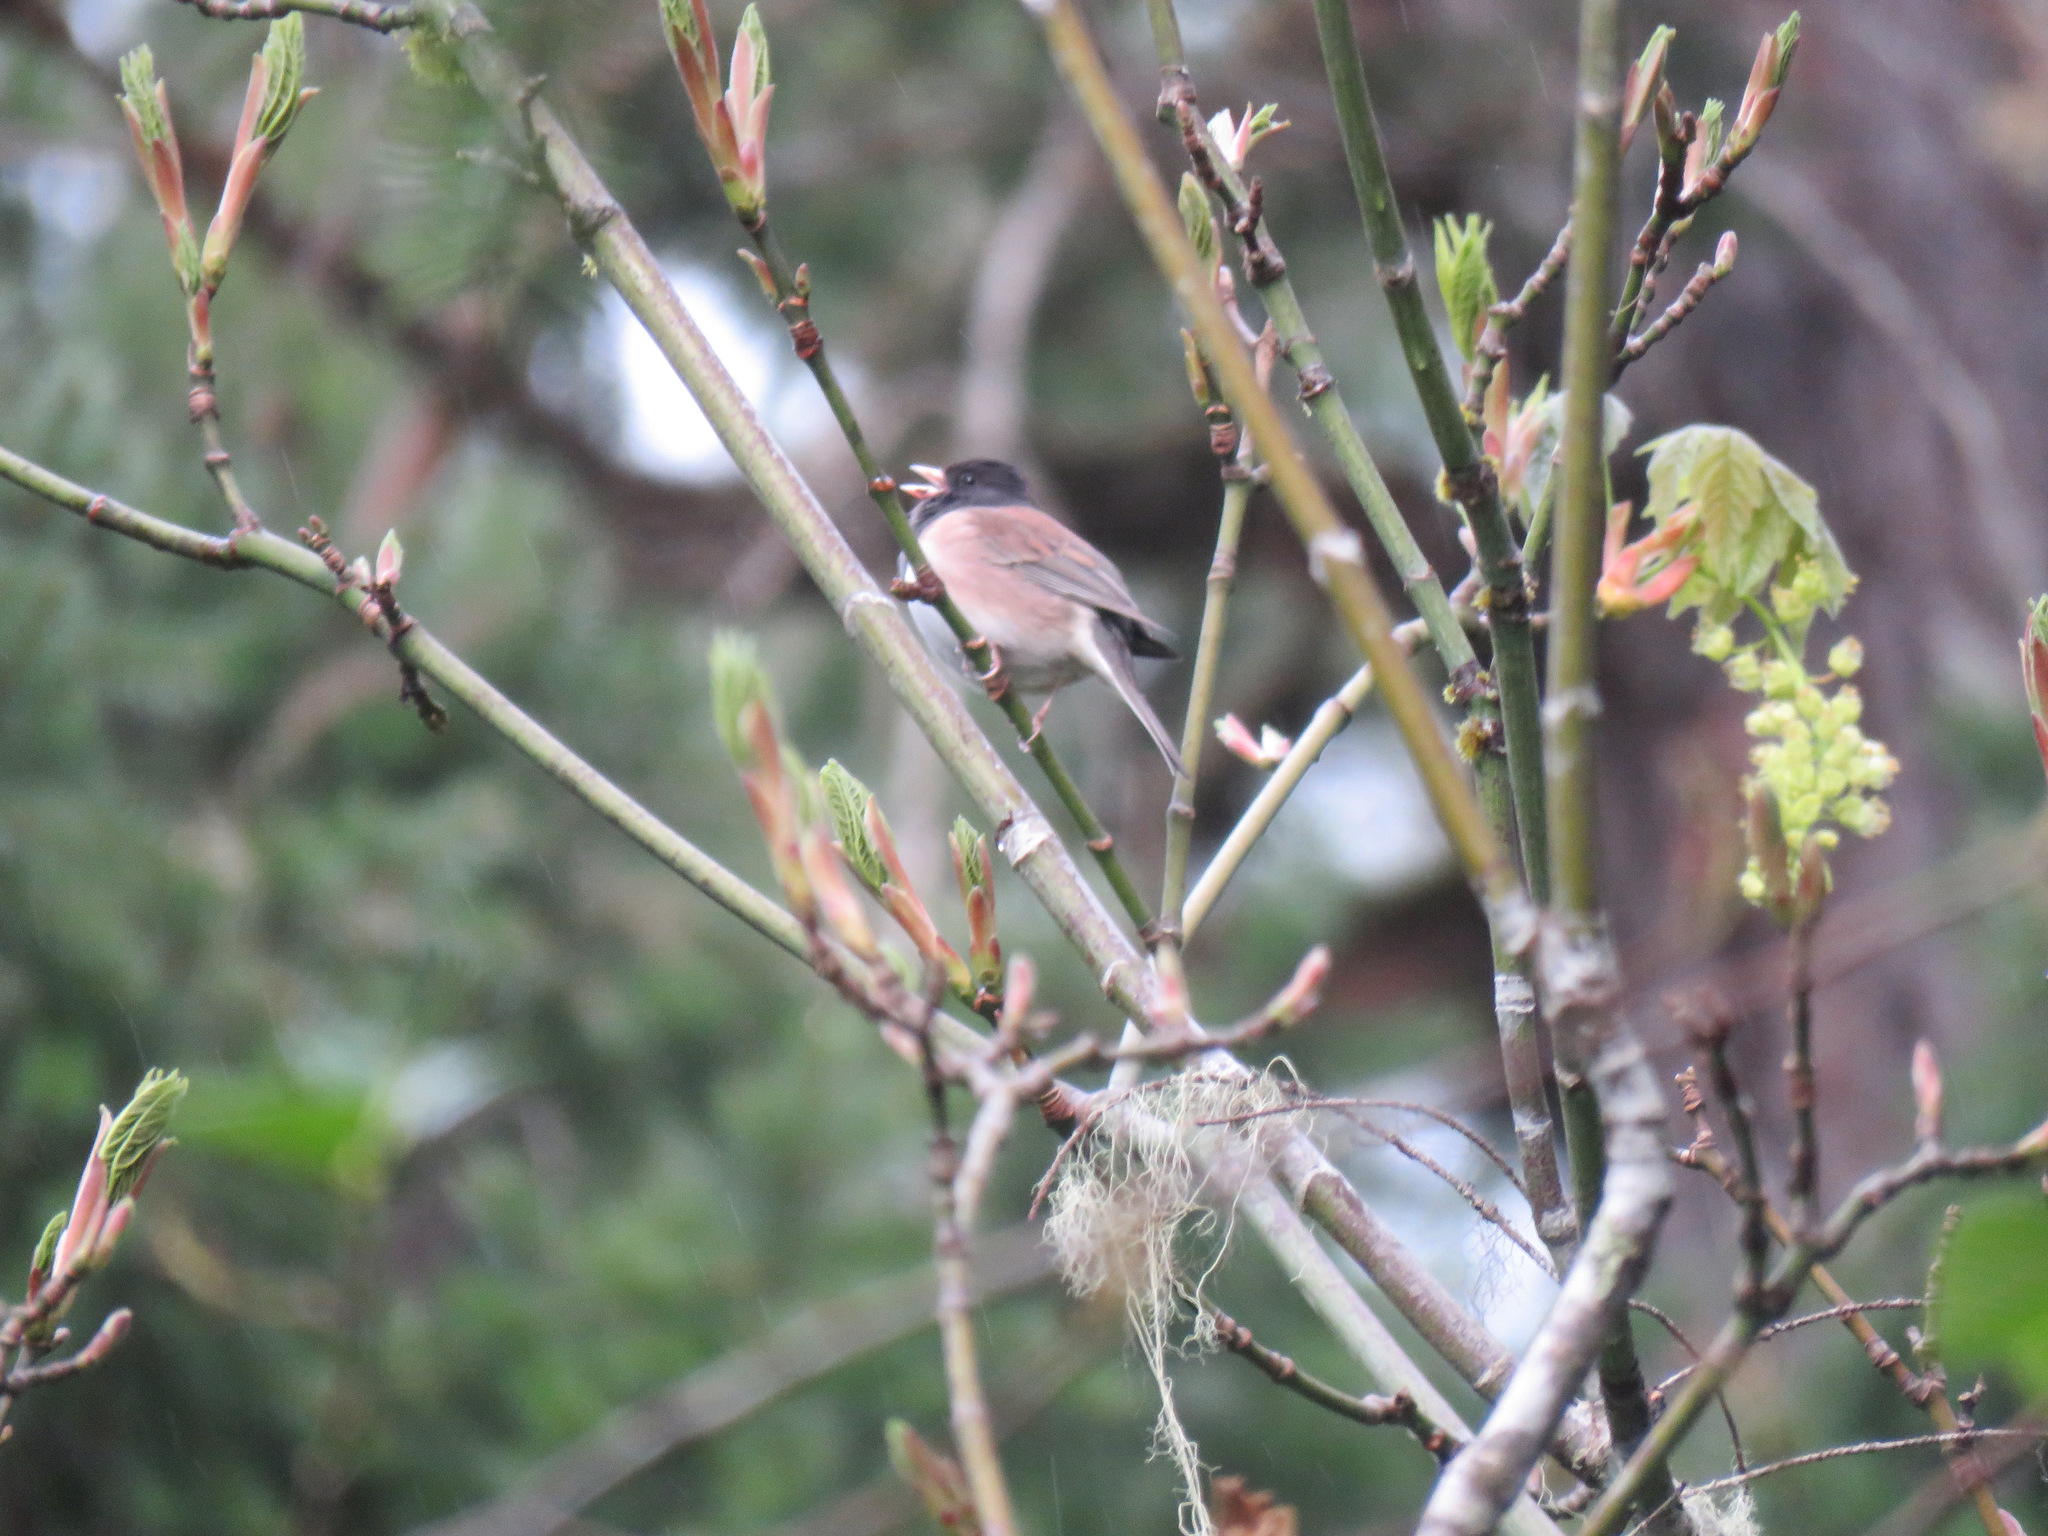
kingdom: Animalia
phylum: Chordata
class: Aves
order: Passeriformes
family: Passerellidae
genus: Junco
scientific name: Junco hyemalis
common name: Dark-eyed junco
